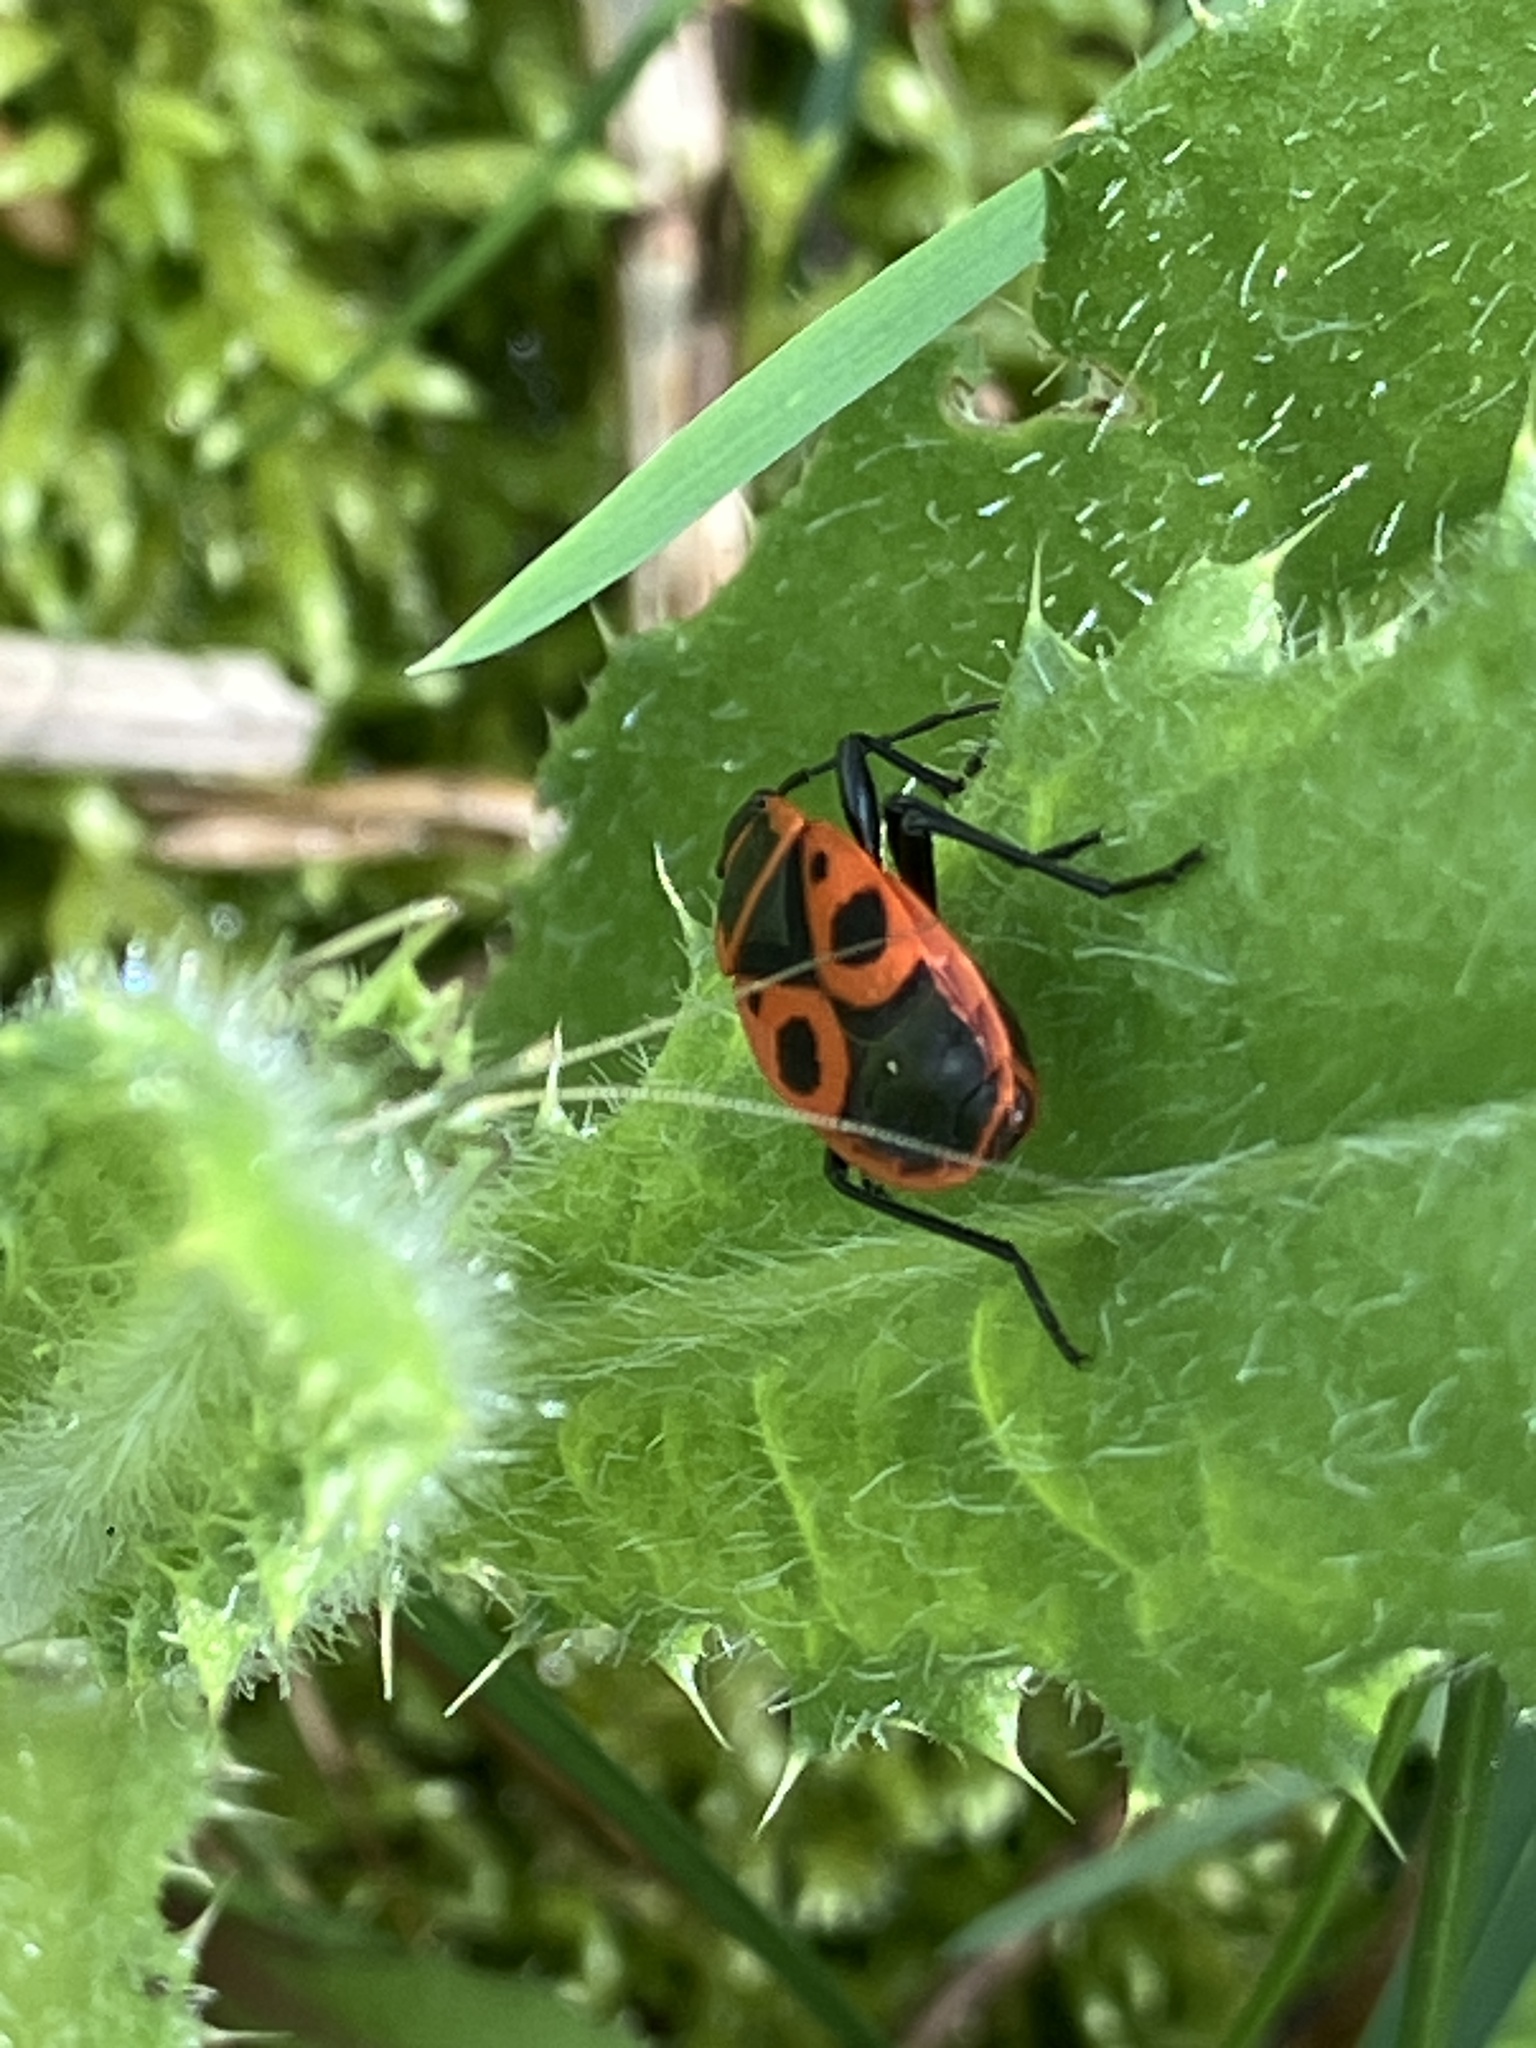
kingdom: Animalia
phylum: Arthropoda
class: Insecta
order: Hemiptera
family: Pyrrhocoridae
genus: Pyrrhocoris
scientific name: Pyrrhocoris apterus
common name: Firebug
